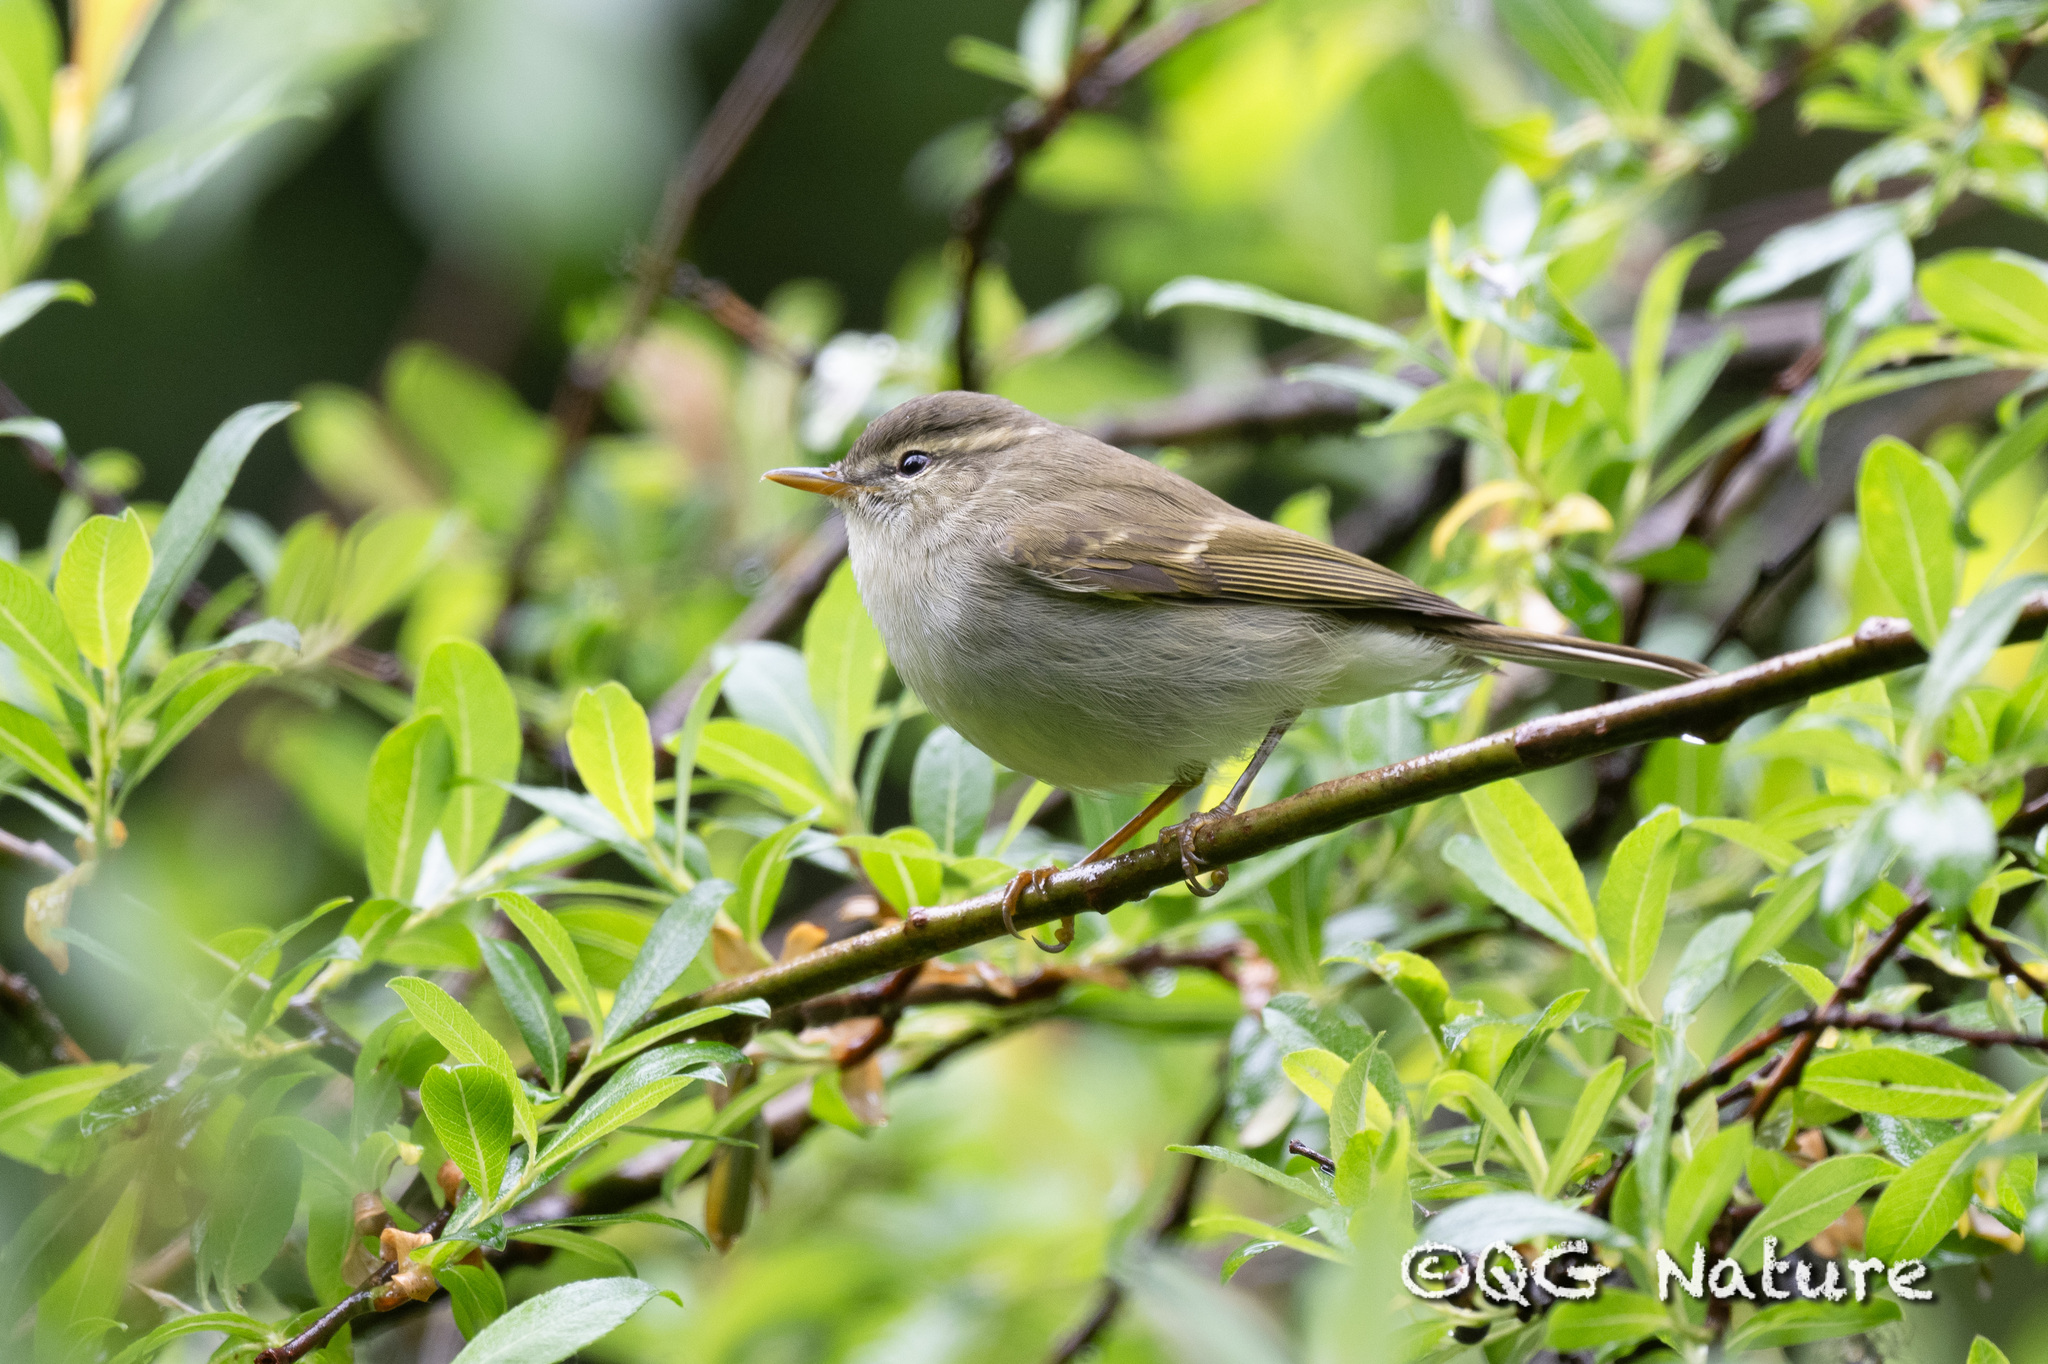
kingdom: Animalia
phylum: Chordata
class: Aves
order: Passeriformes
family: Phylloscopidae
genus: Phylloscopus
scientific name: Phylloscopus trochiloides
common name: Greenish warbler
